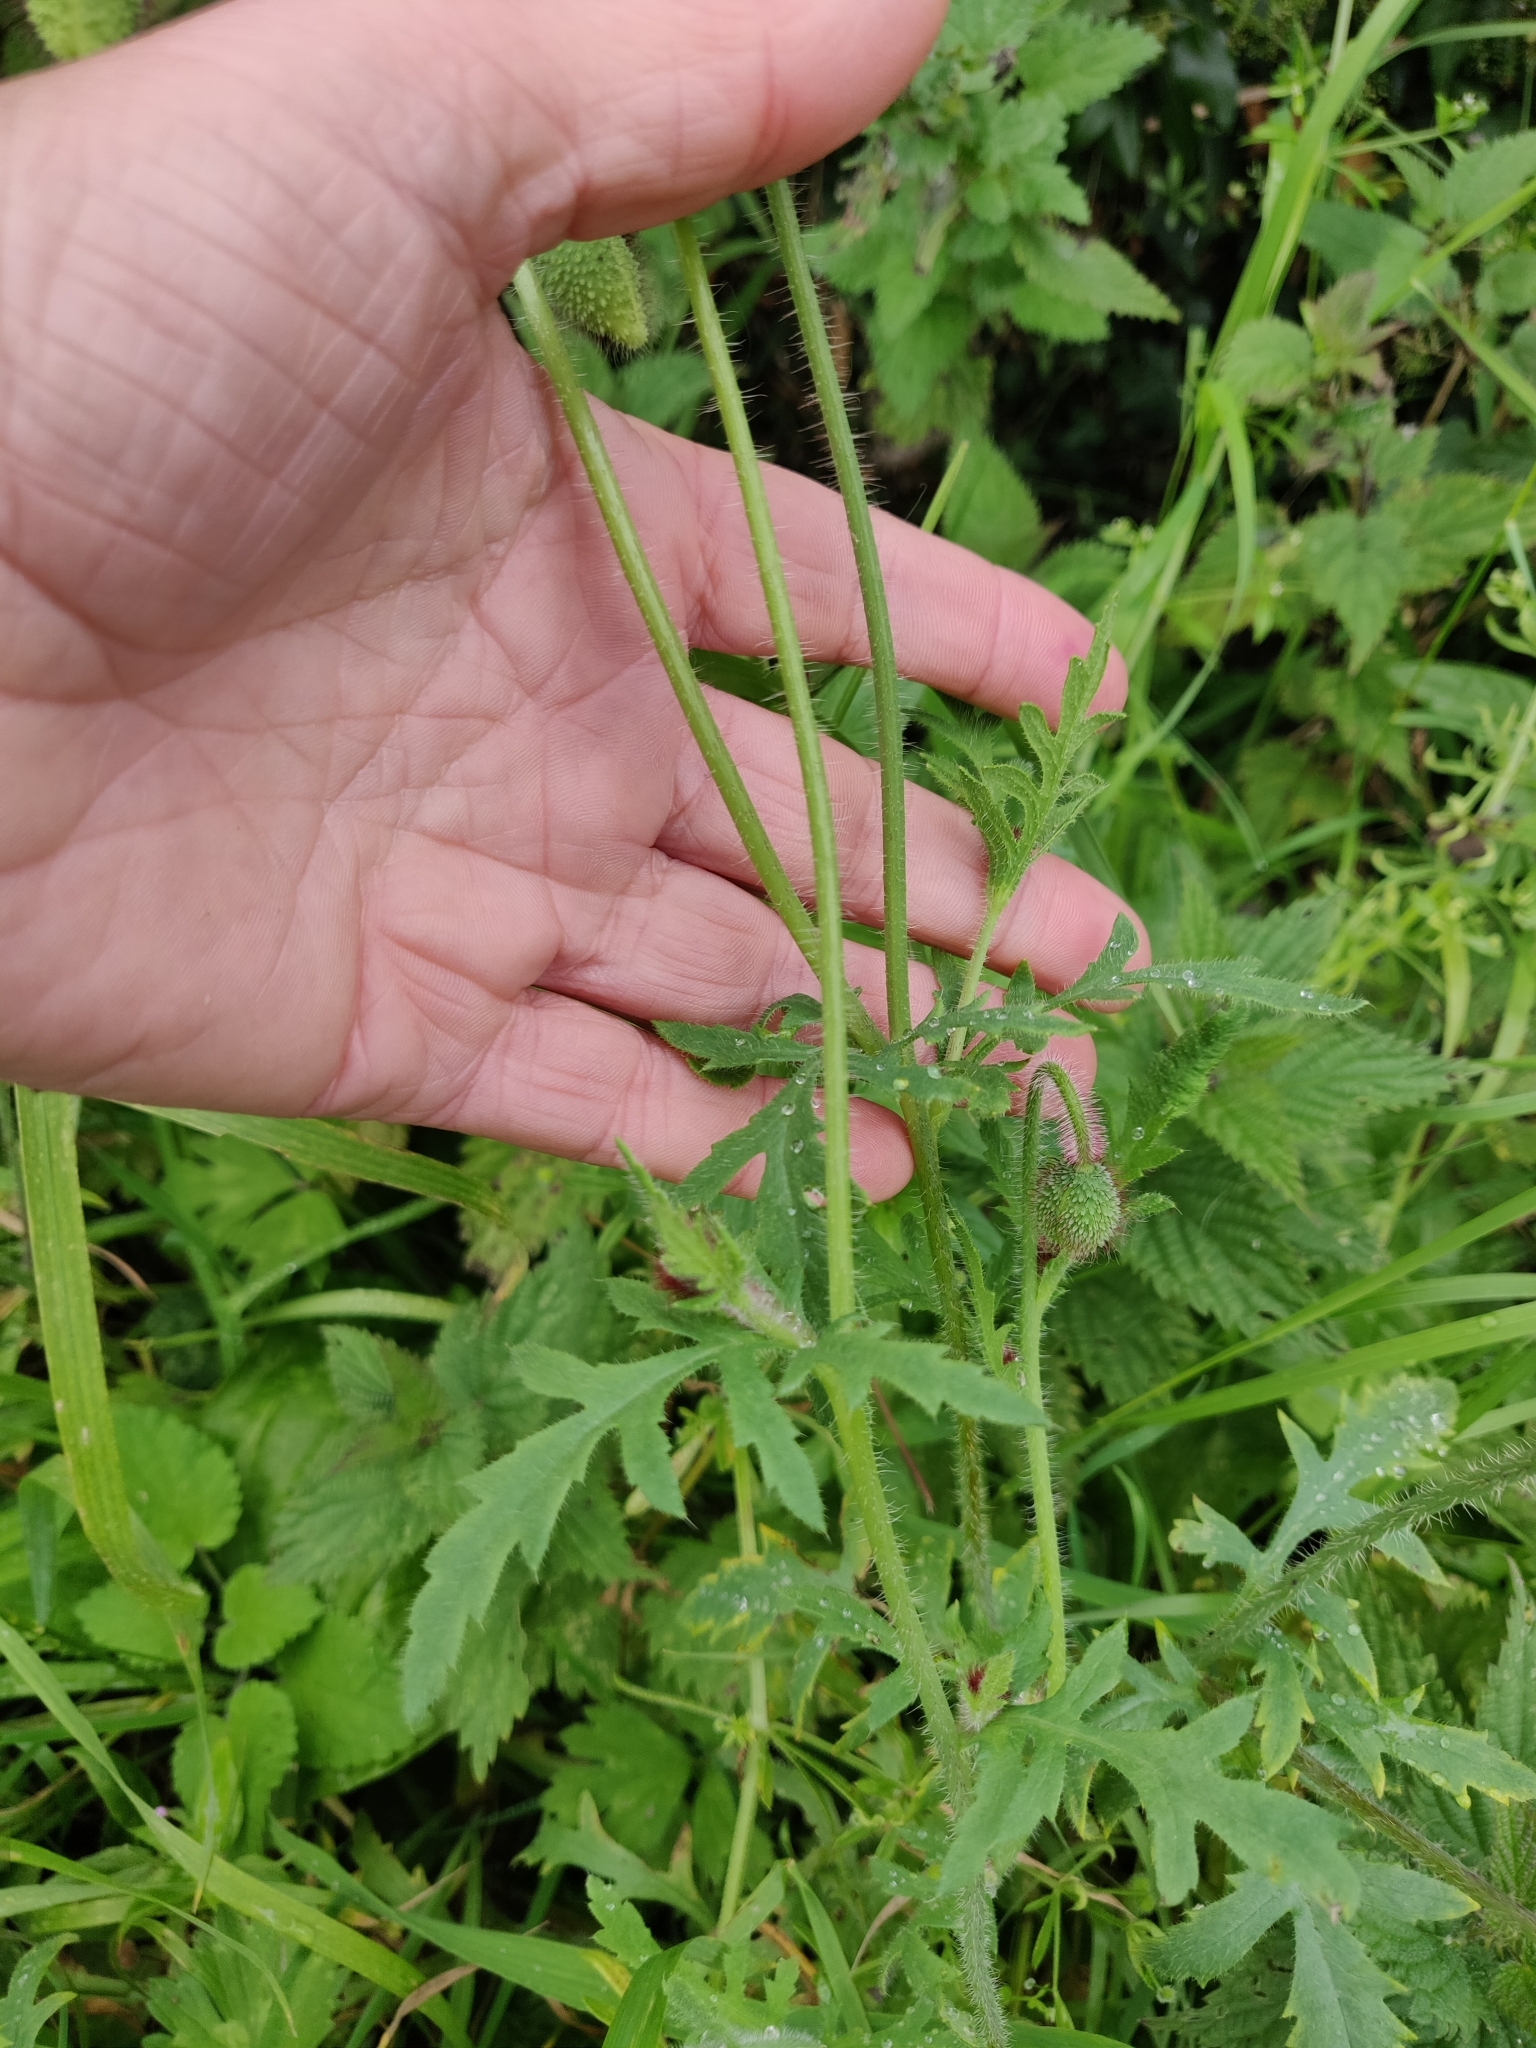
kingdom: Plantae
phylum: Tracheophyta
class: Magnoliopsida
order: Ranunculales
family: Papaveraceae
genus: Papaver
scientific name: Papaver rhoeas
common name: Corn poppy
